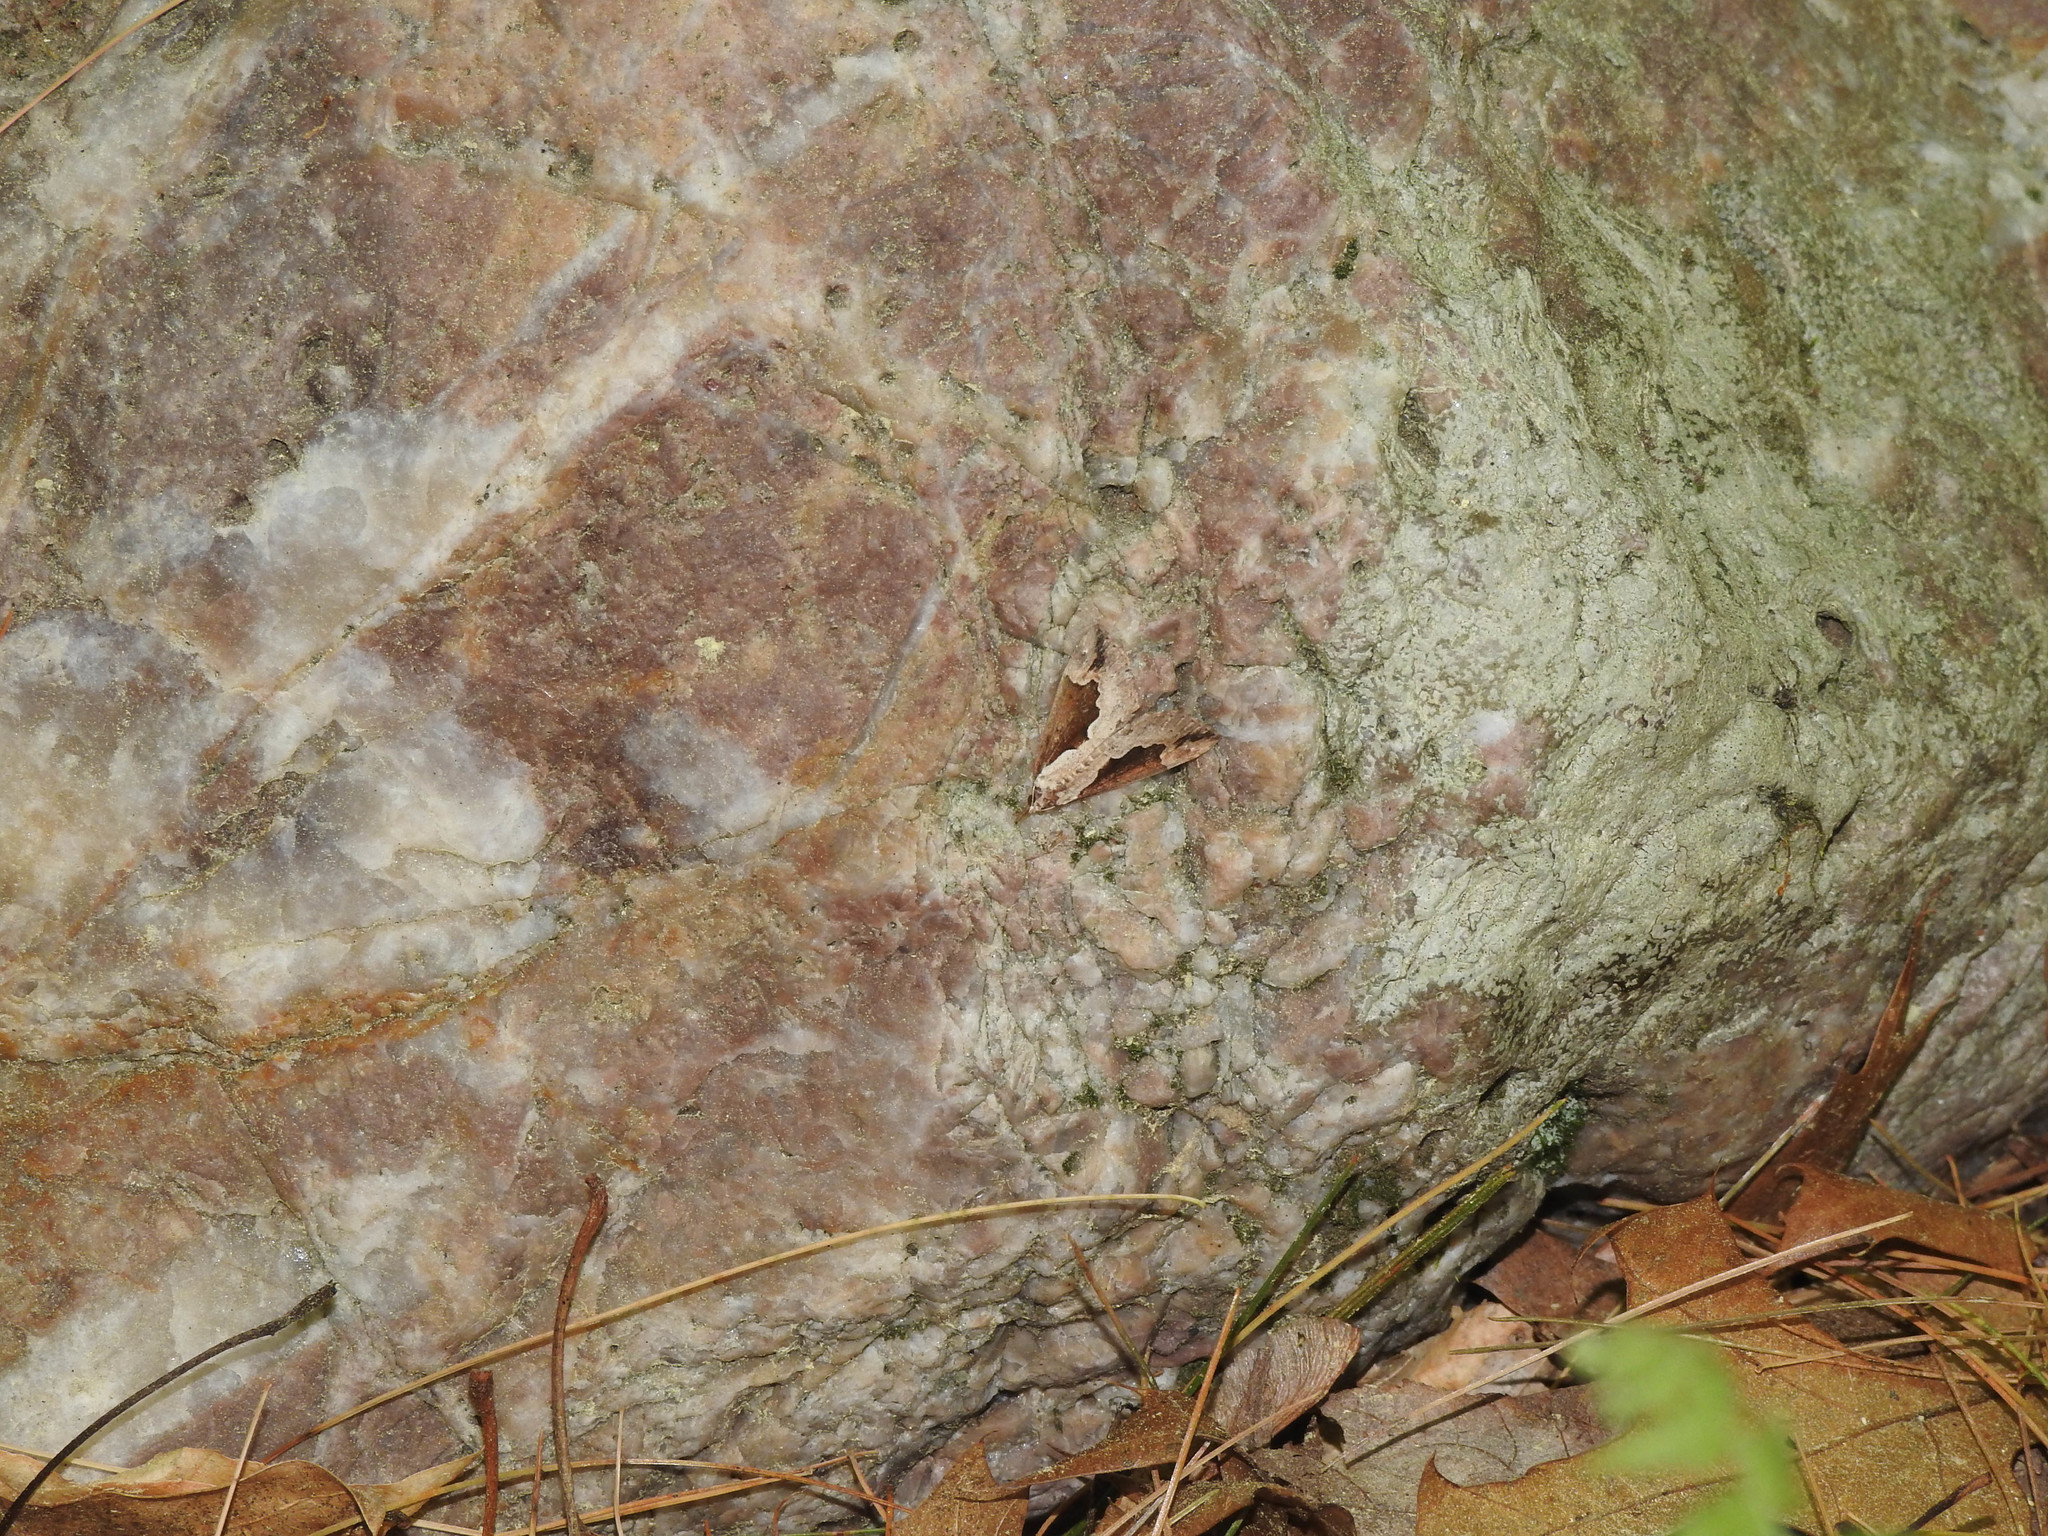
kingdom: Animalia
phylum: Arthropoda
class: Insecta
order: Lepidoptera
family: Erebidae
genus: Hypena
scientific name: Hypena baltimoralis
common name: Baltimore snout
